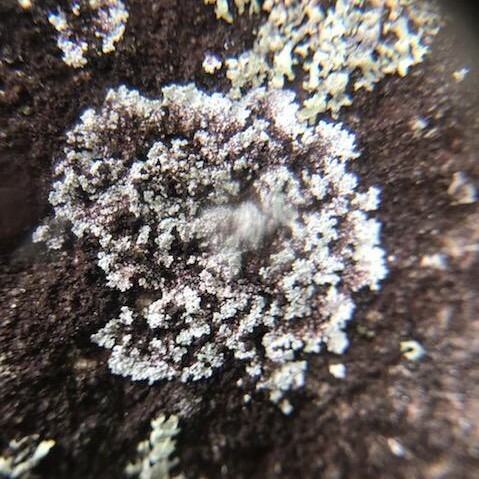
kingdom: Fungi
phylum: Ascomycota
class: Lecanoromycetes
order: Lecanorales
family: Stereocaulaceae
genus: Lepraria
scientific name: Lepraria neglecta
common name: Zoned dust lichen
